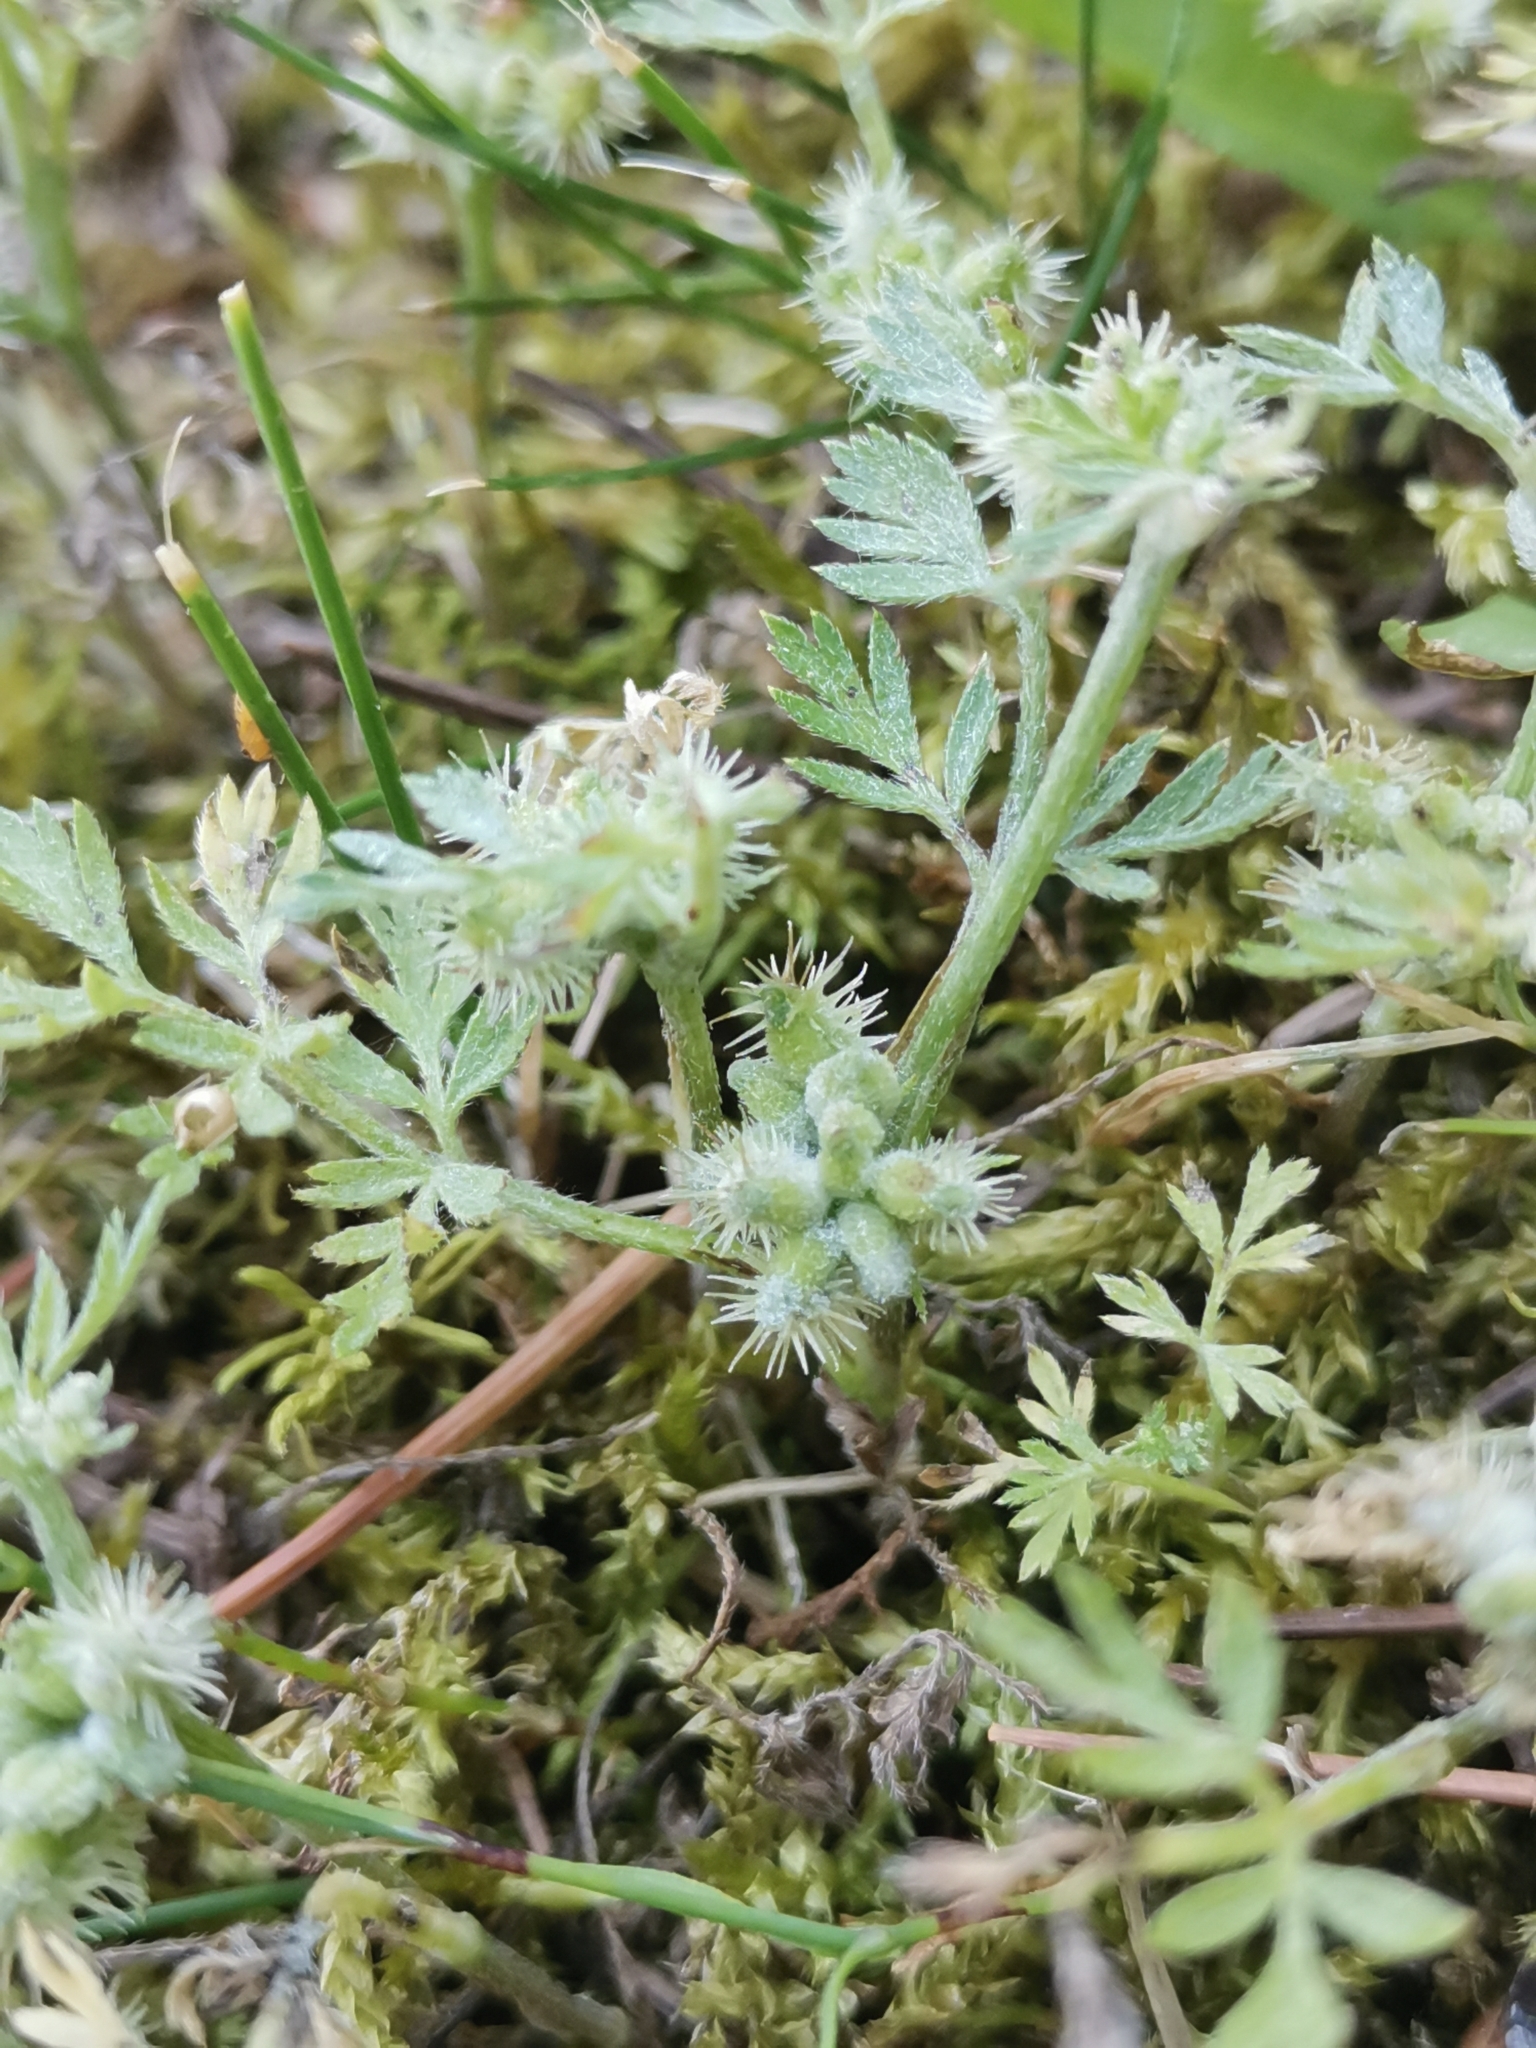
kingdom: Plantae
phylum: Tracheophyta
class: Magnoliopsida
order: Apiales
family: Apiaceae
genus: Torilis
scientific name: Torilis nodosa
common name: Knotted hedge-parsley
